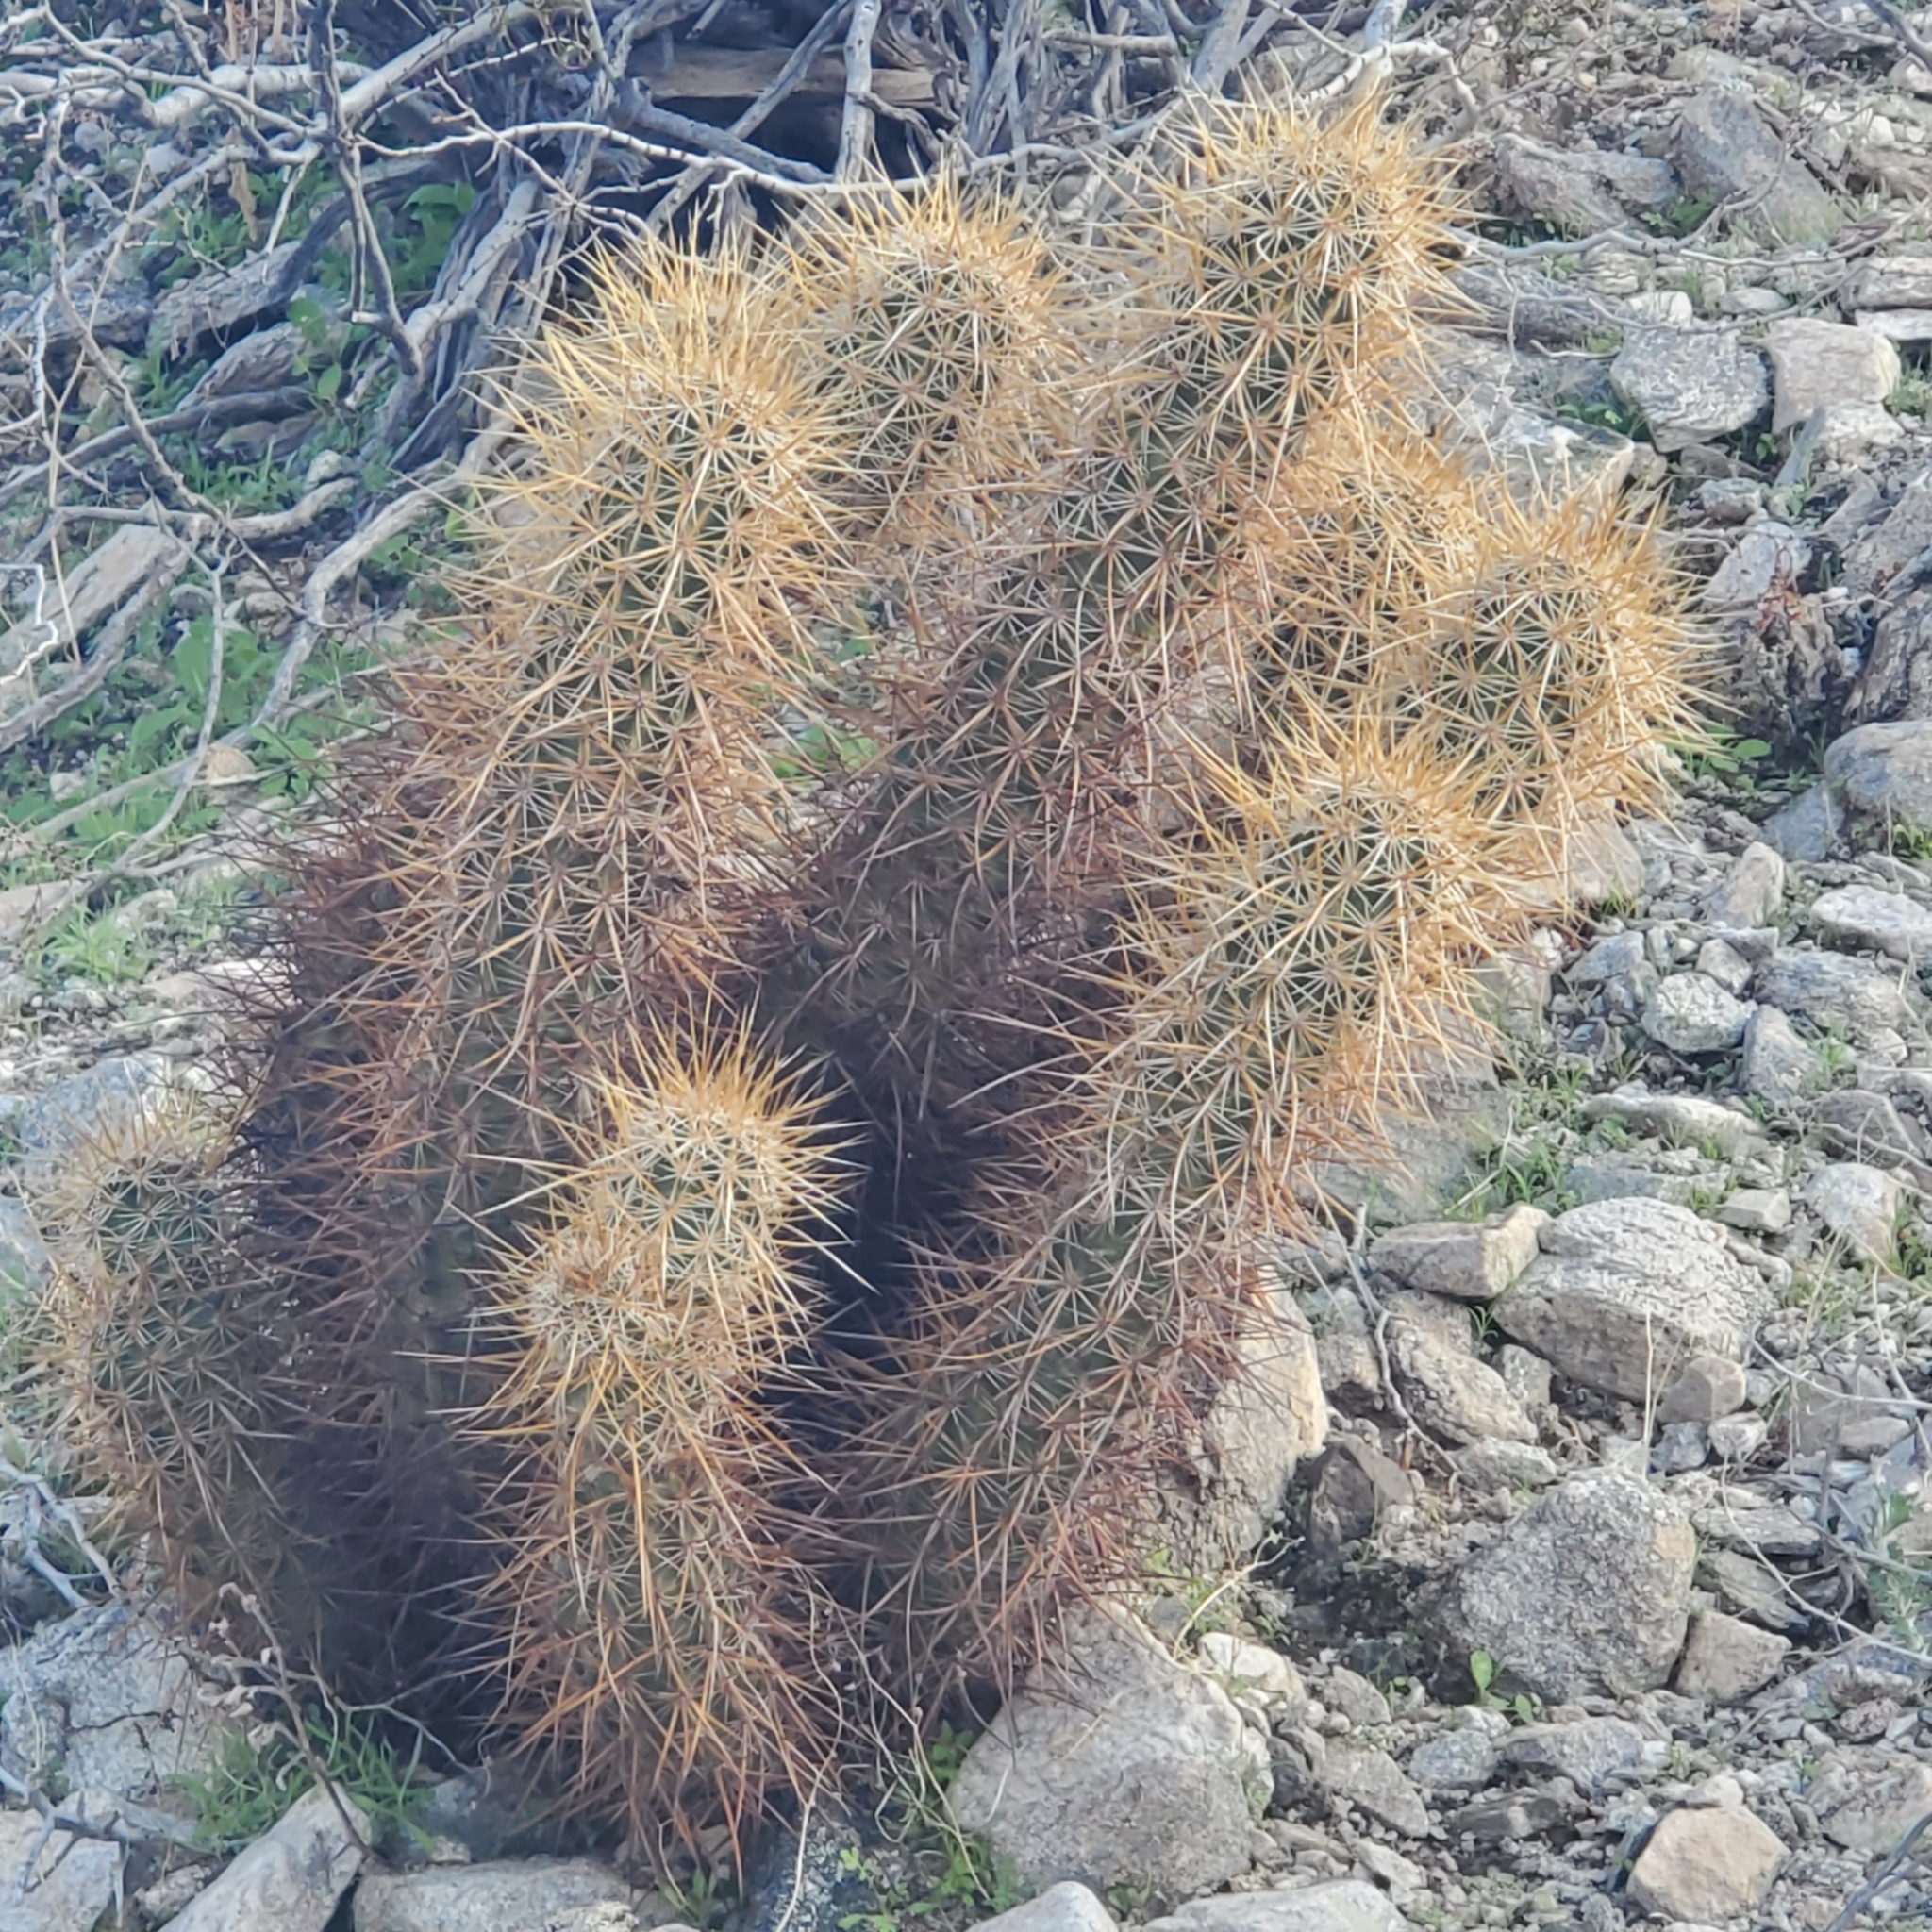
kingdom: Plantae
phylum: Tracheophyta
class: Magnoliopsida
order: Caryophyllales
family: Cactaceae
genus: Echinocereus
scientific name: Echinocereus engelmannii
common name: Engelmann's hedgehog cactus
